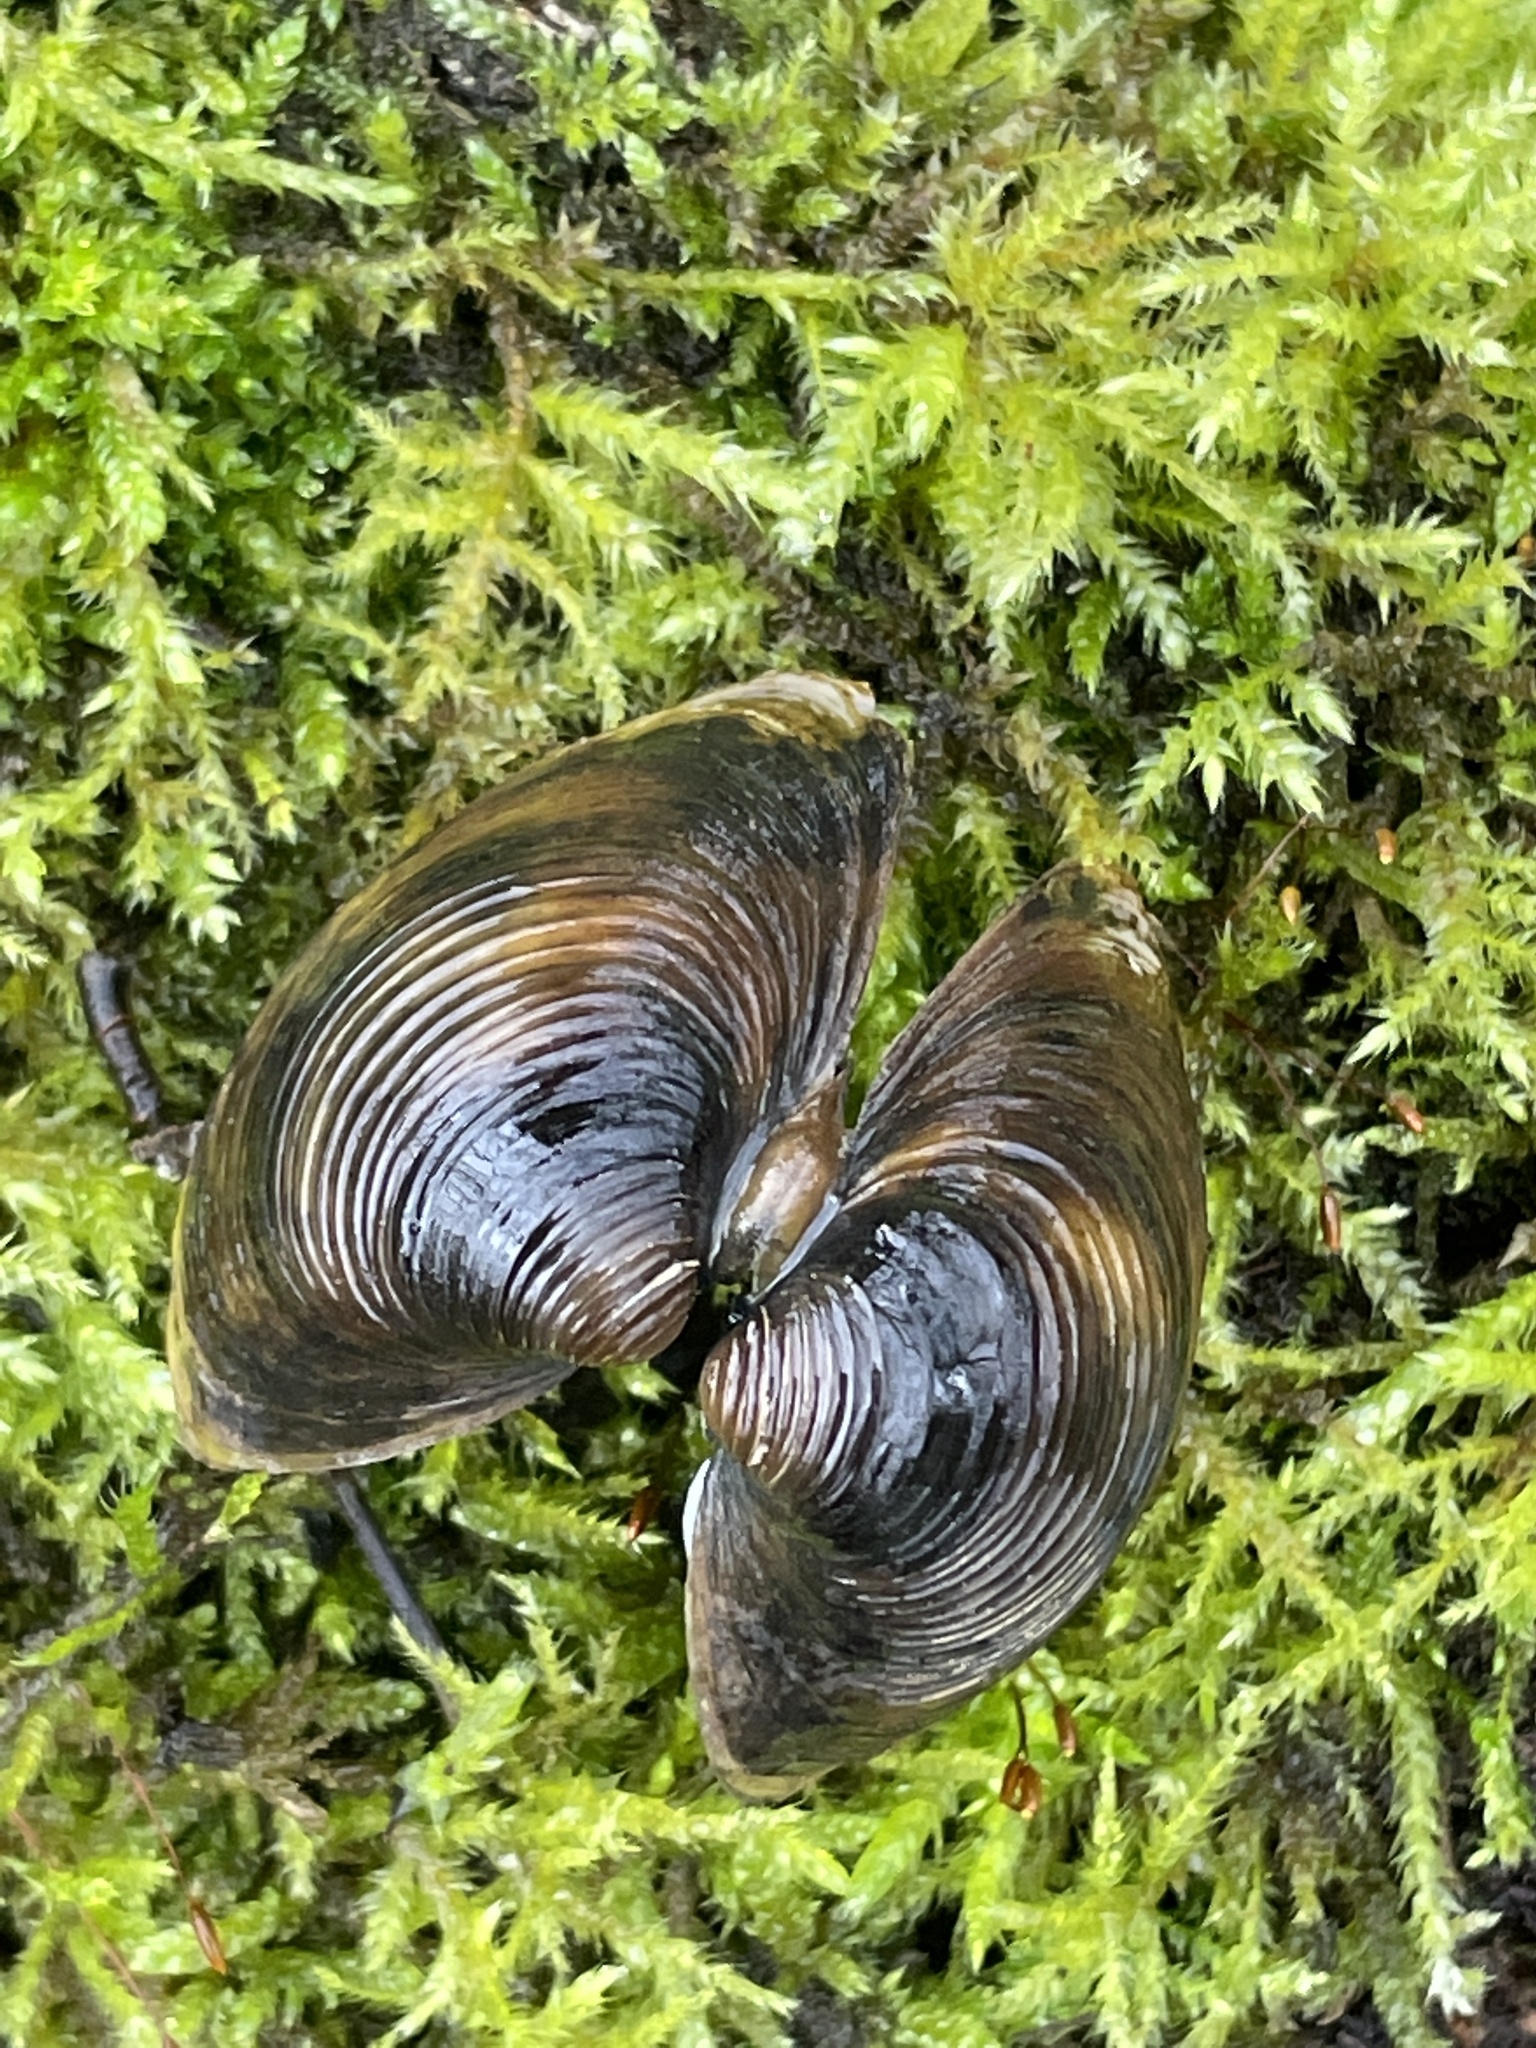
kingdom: Animalia
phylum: Mollusca
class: Bivalvia
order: Venerida
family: Cyrenidae
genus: Corbicula
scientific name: Corbicula fluminea
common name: Asian clam
